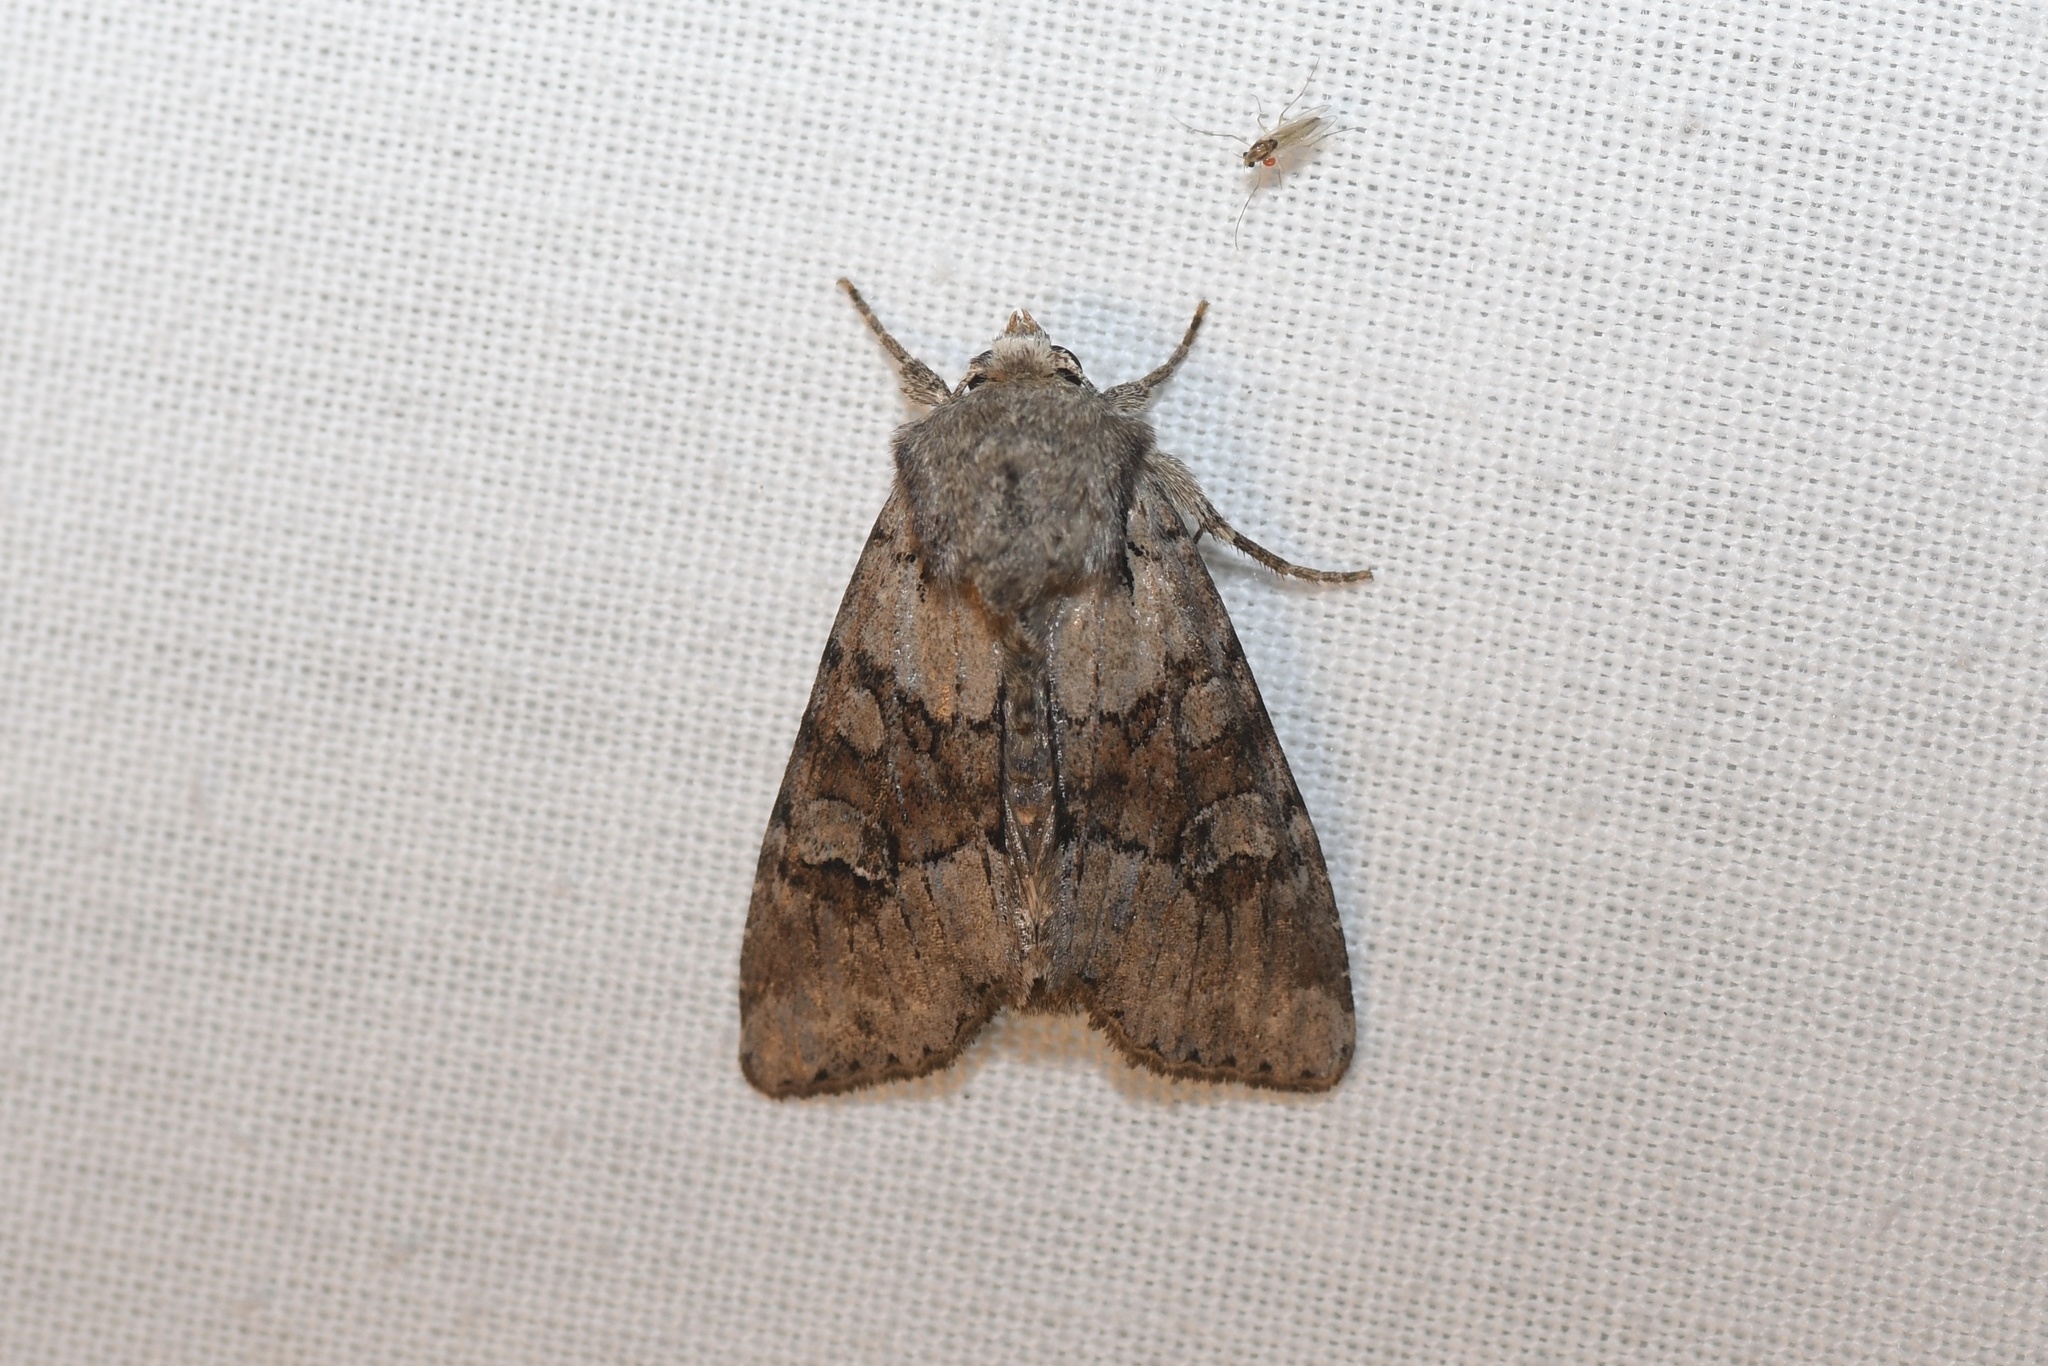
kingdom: Animalia
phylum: Arthropoda
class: Insecta
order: Lepidoptera
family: Noctuidae
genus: Apamea
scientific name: Apamea sordens
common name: Rustic shoulder-knot
